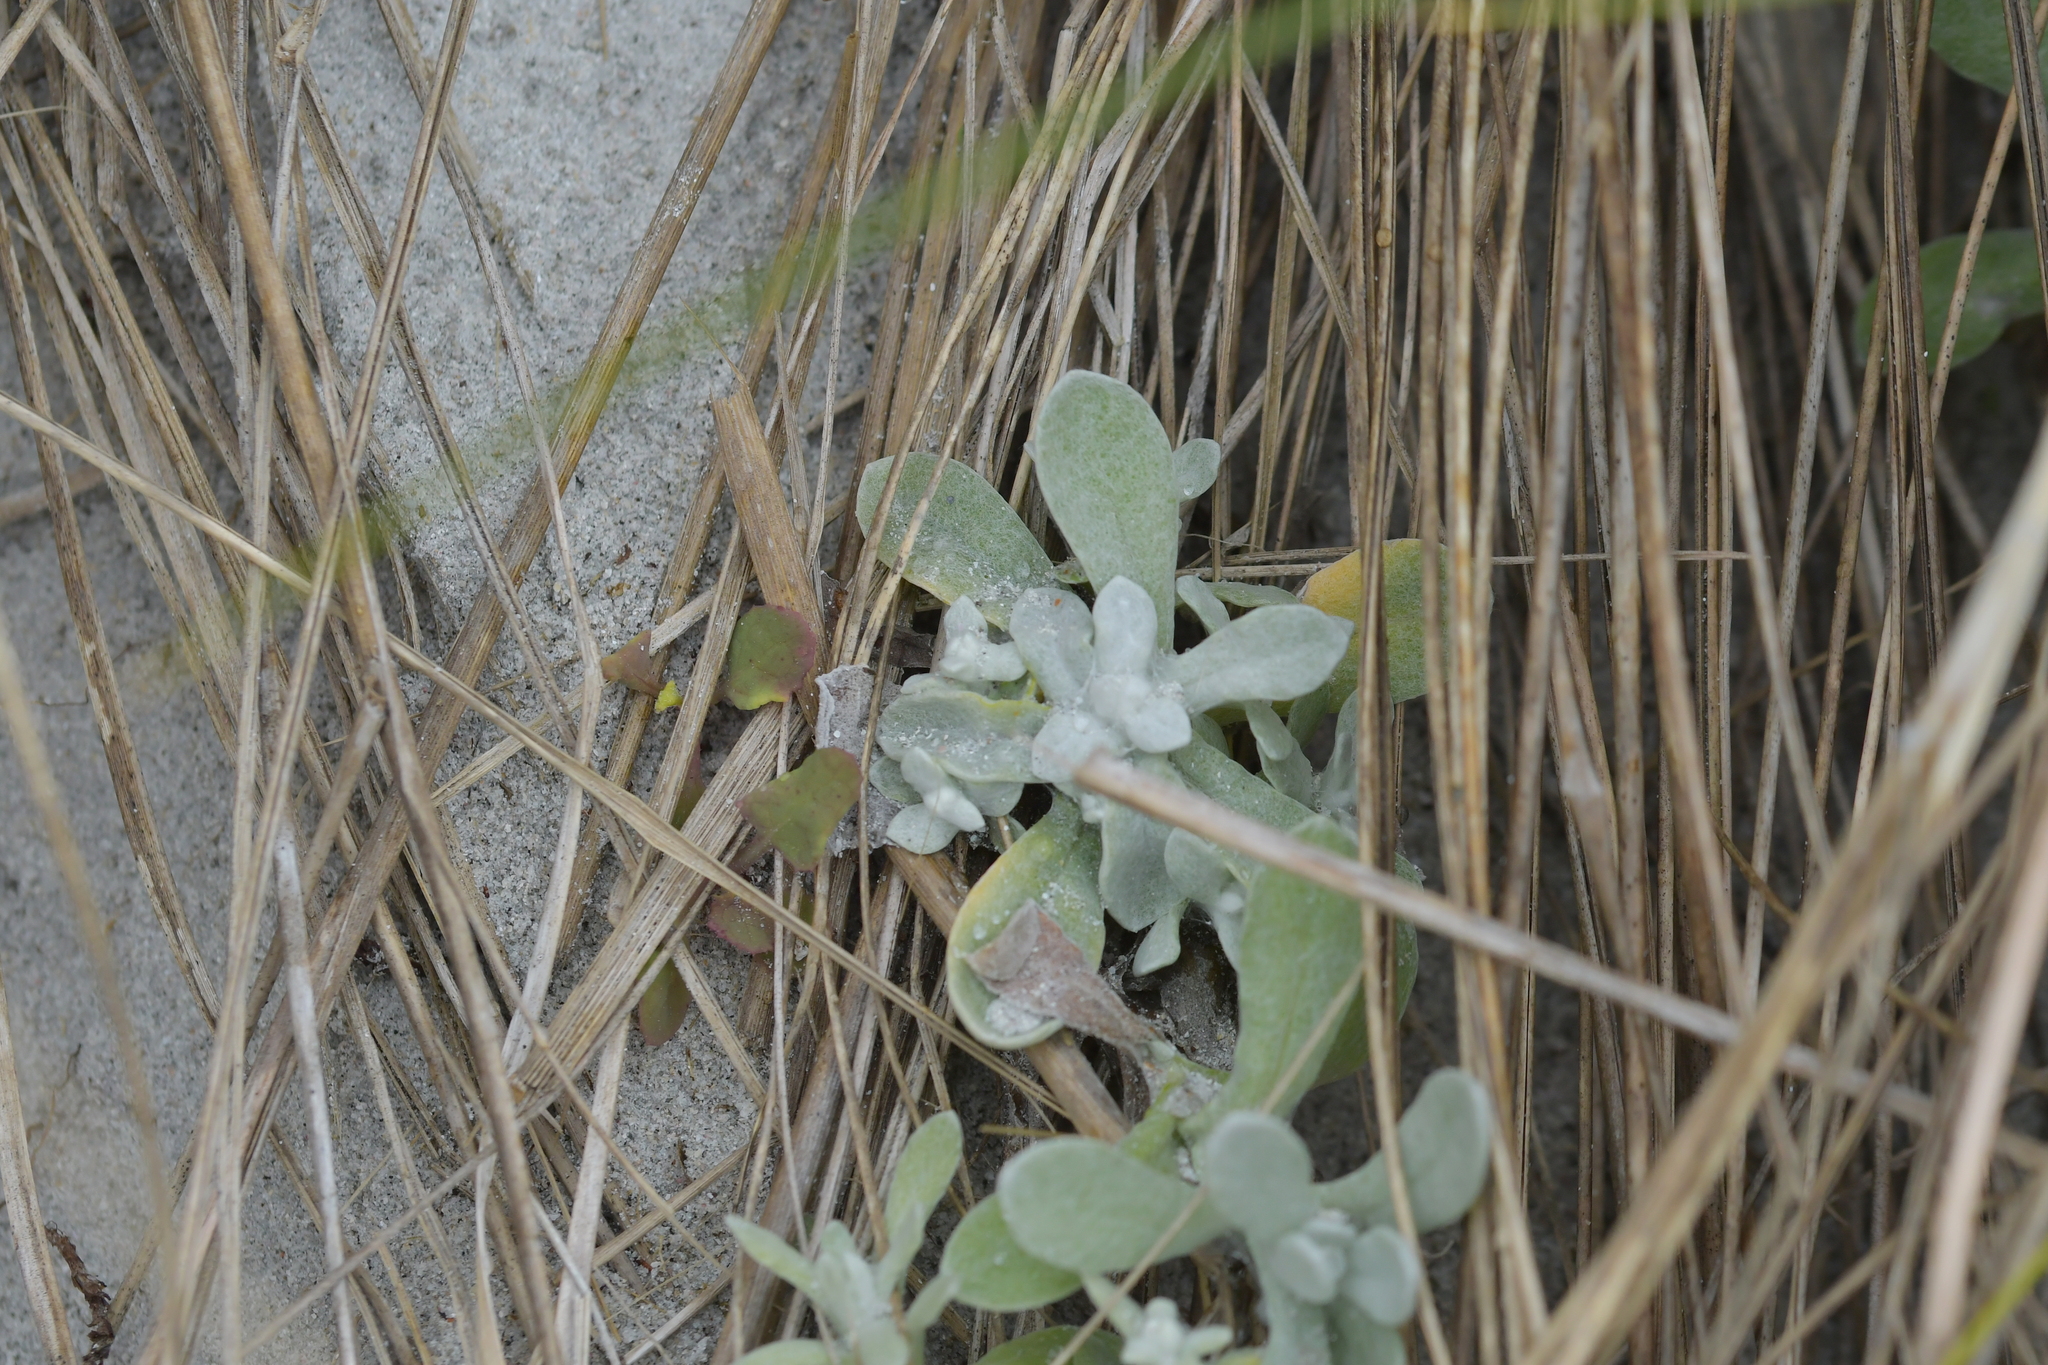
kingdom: Plantae
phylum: Tracheophyta
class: Magnoliopsida
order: Asterales
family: Asteraceae
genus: Pseudognaphalium
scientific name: Pseudognaphalium
